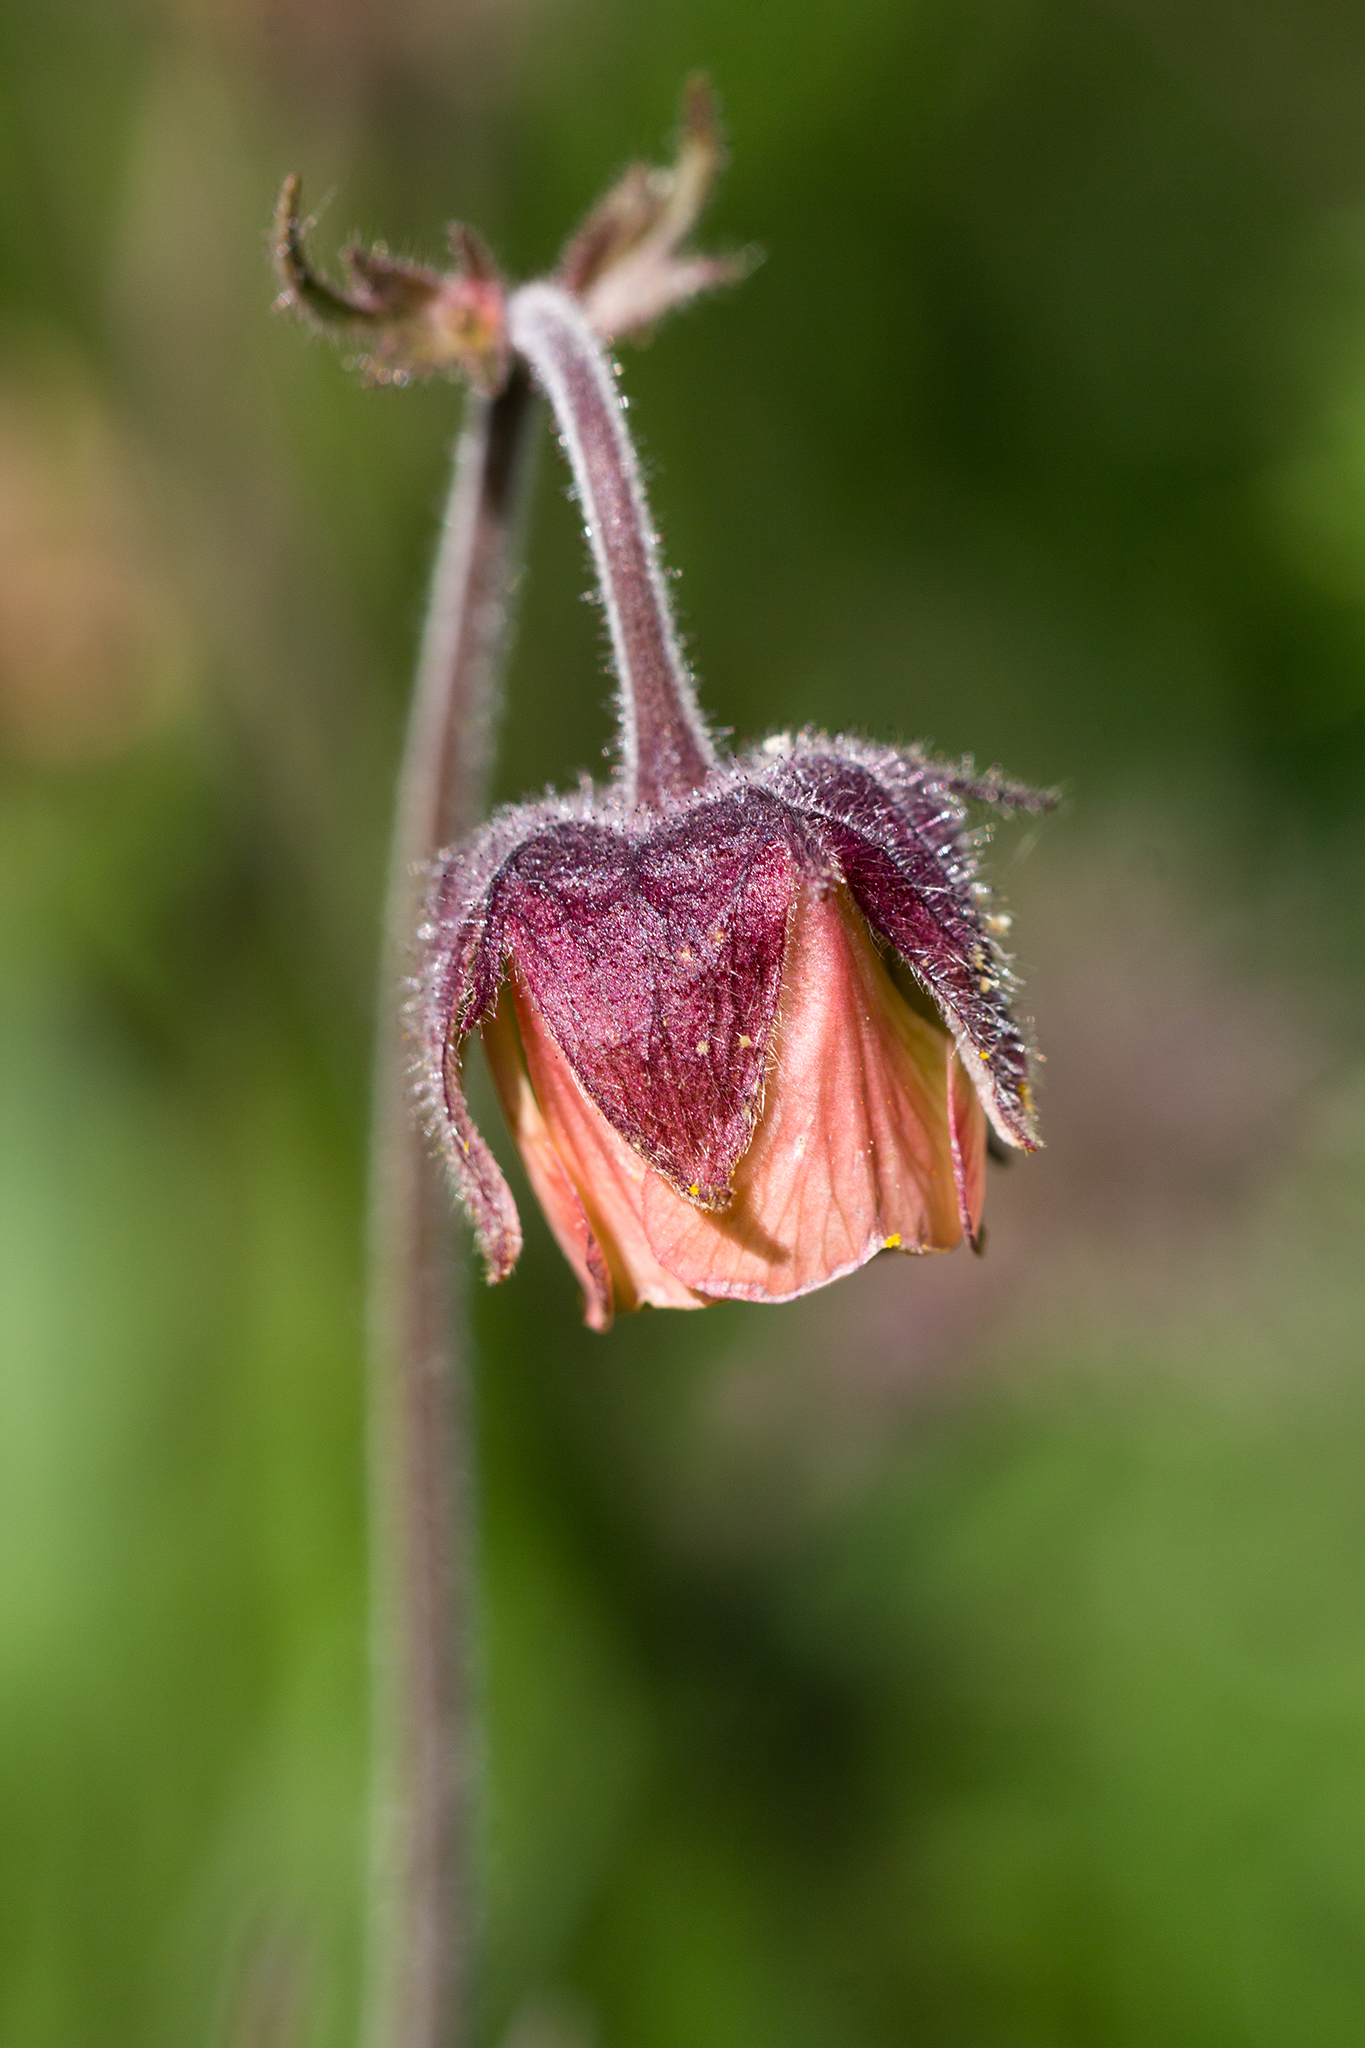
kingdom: Plantae
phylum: Tracheophyta
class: Magnoliopsida
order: Rosales
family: Rosaceae
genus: Geum
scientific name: Geum rivale
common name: Water avens
